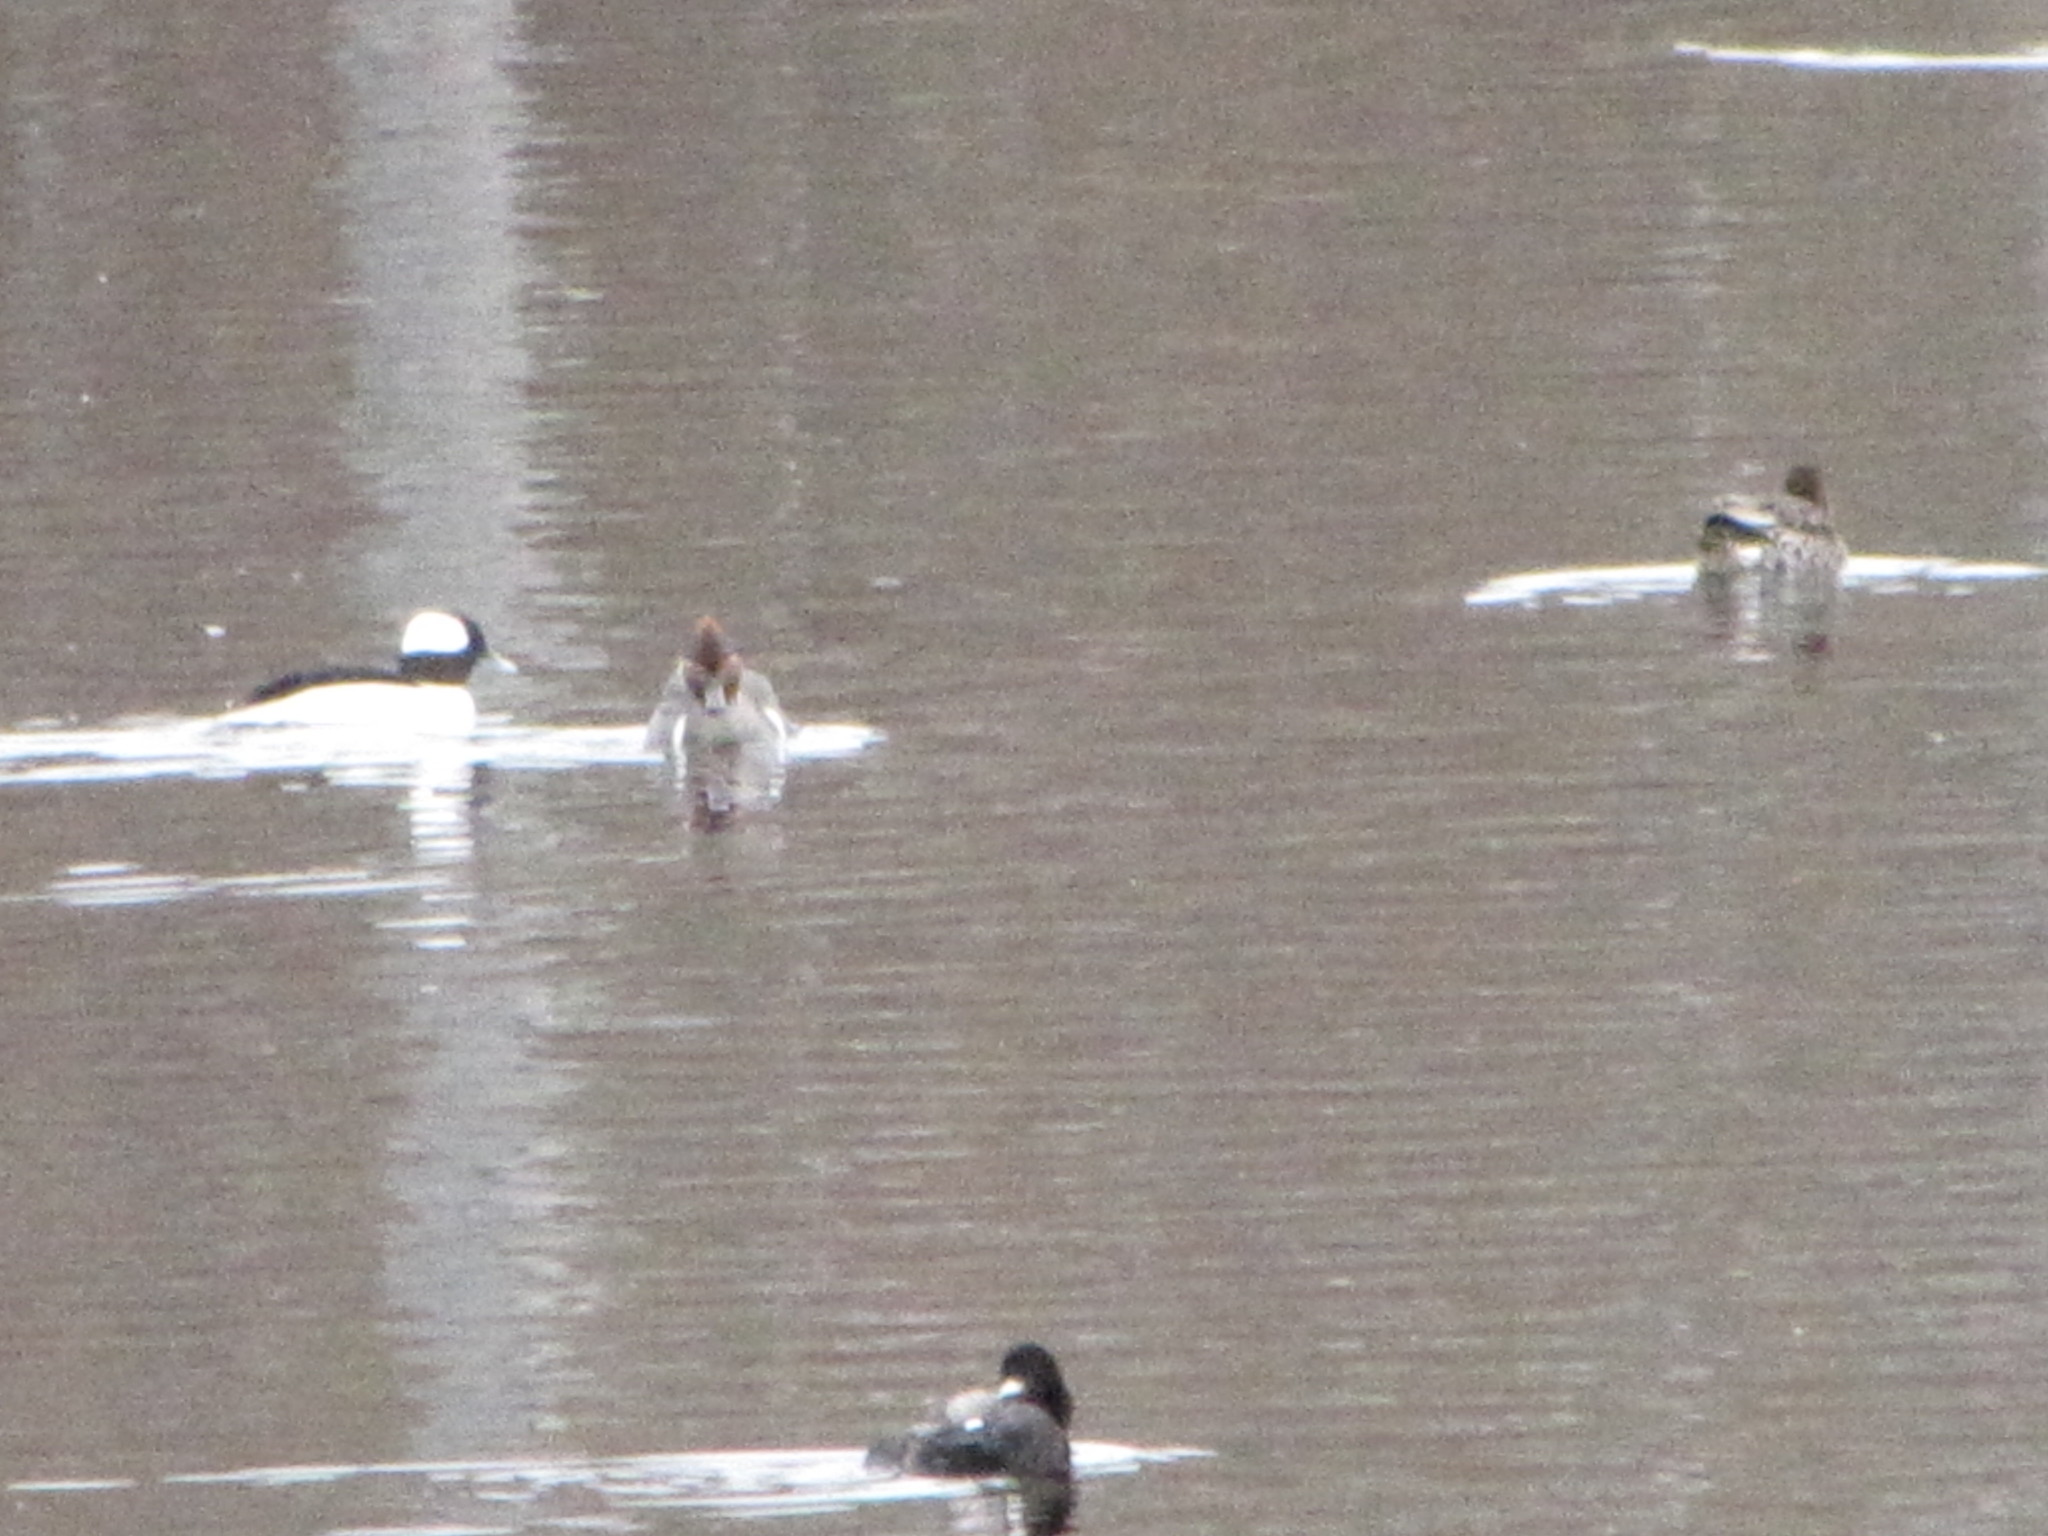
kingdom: Animalia
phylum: Chordata
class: Aves
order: Anseriformes
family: Anatidae
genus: Anas
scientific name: Anas carolinensis
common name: Green-winged teal
